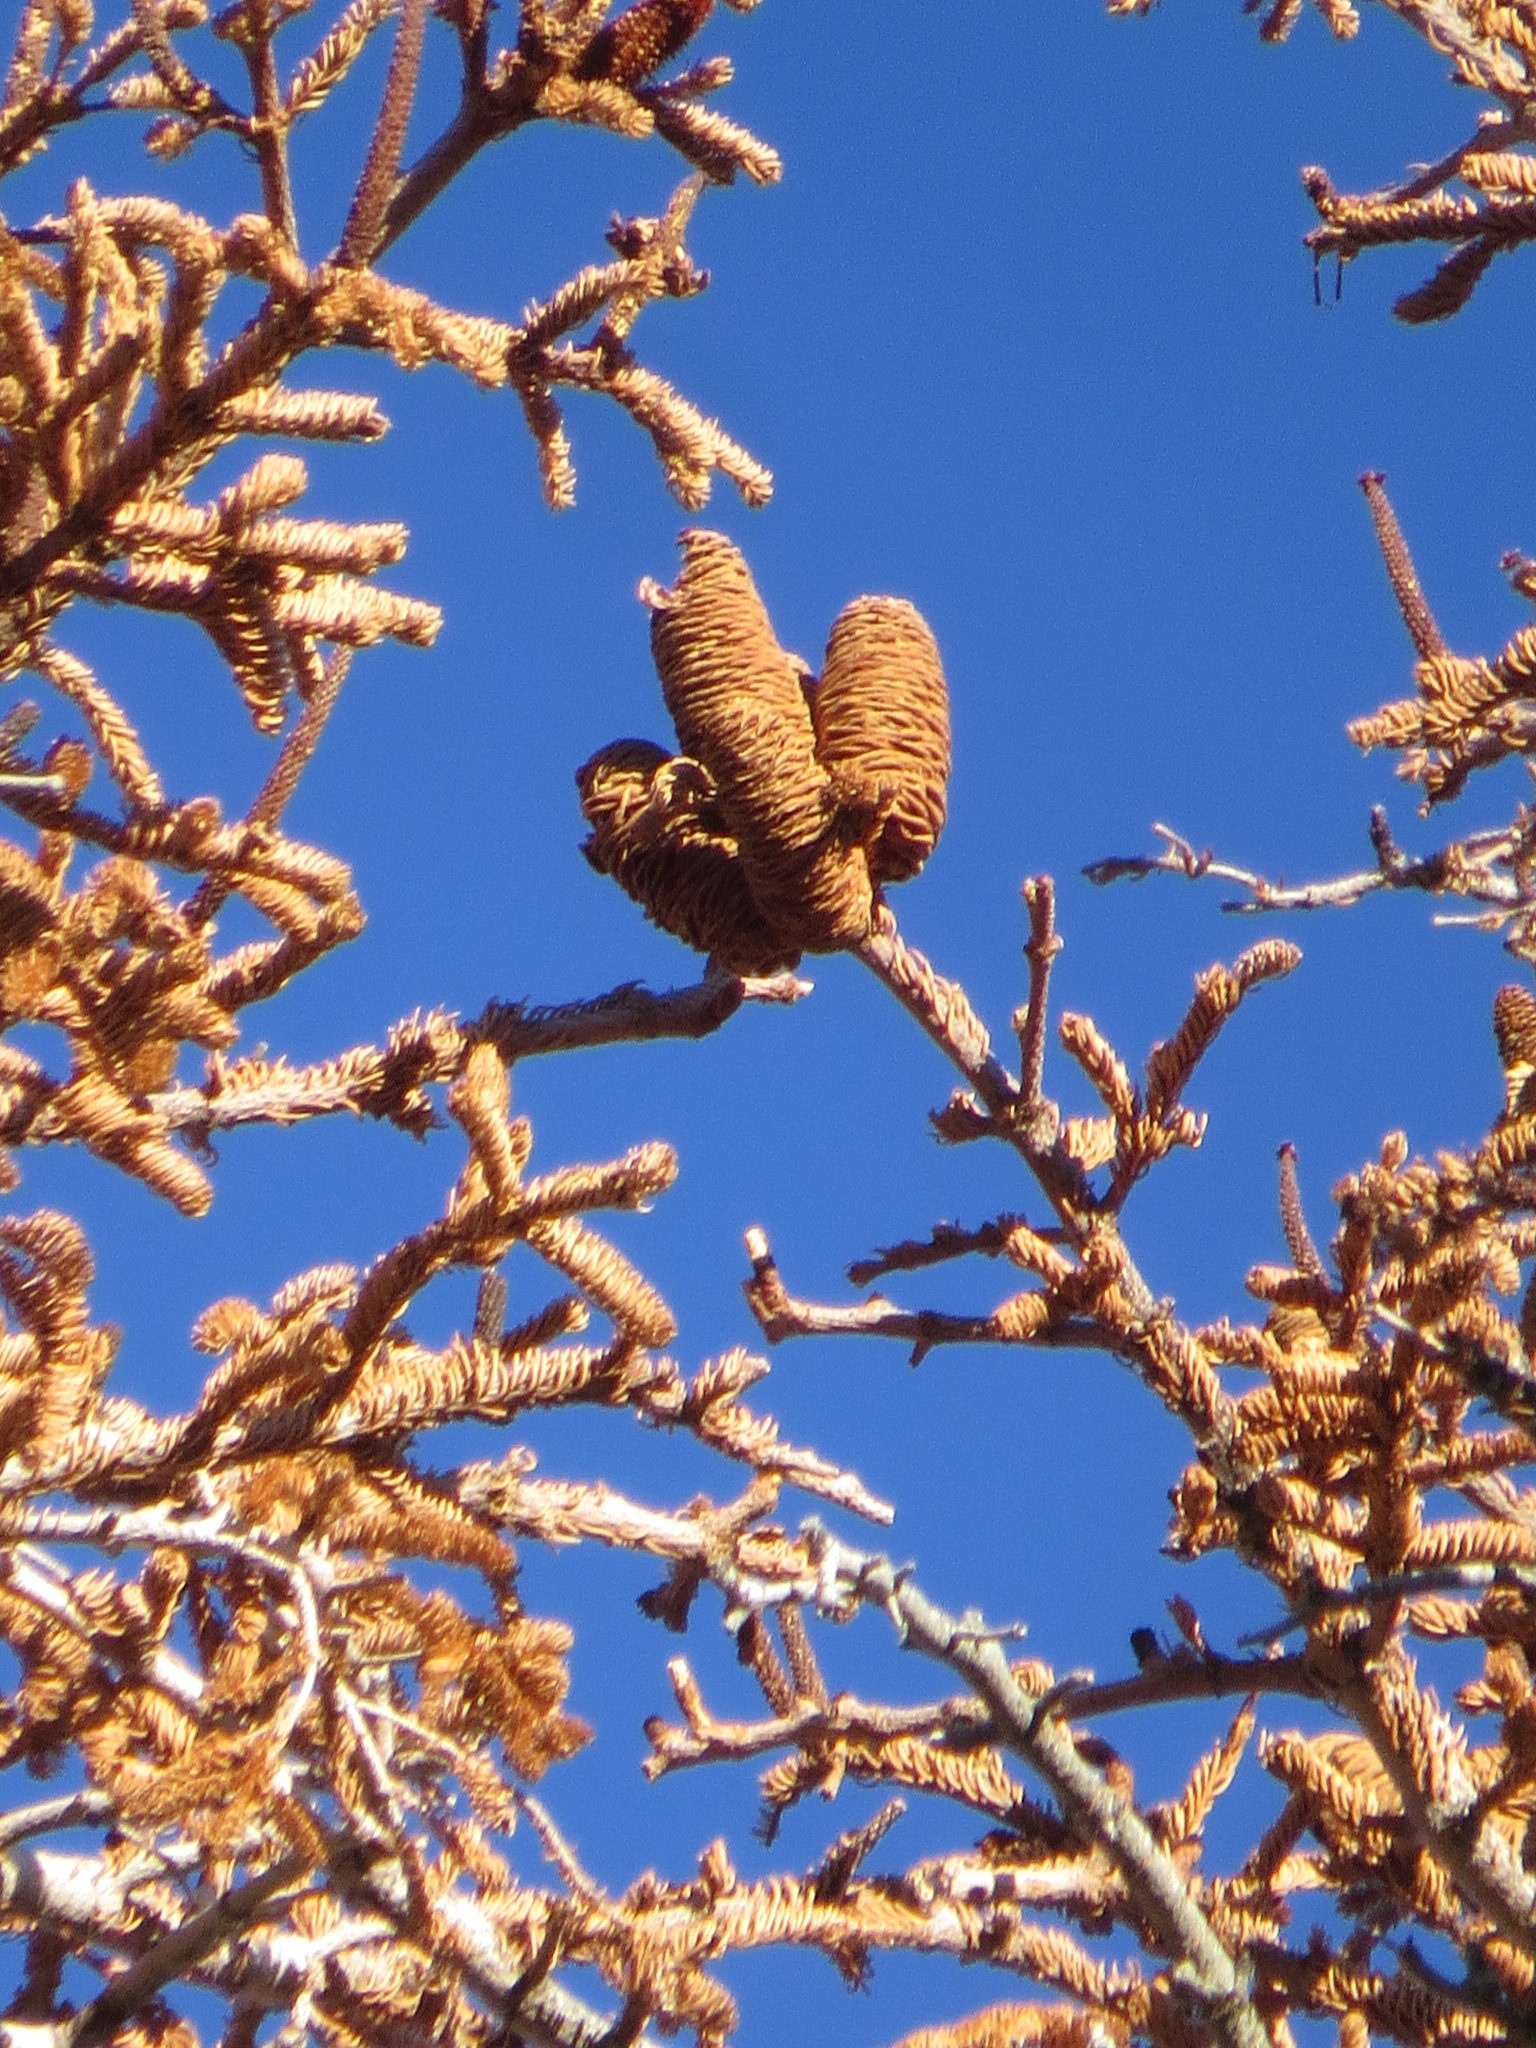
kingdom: Plantae
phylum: Tracheophyta
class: Pinopsida
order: Pinales
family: Pinaceae
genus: Abies
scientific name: Abies magnifica bis
